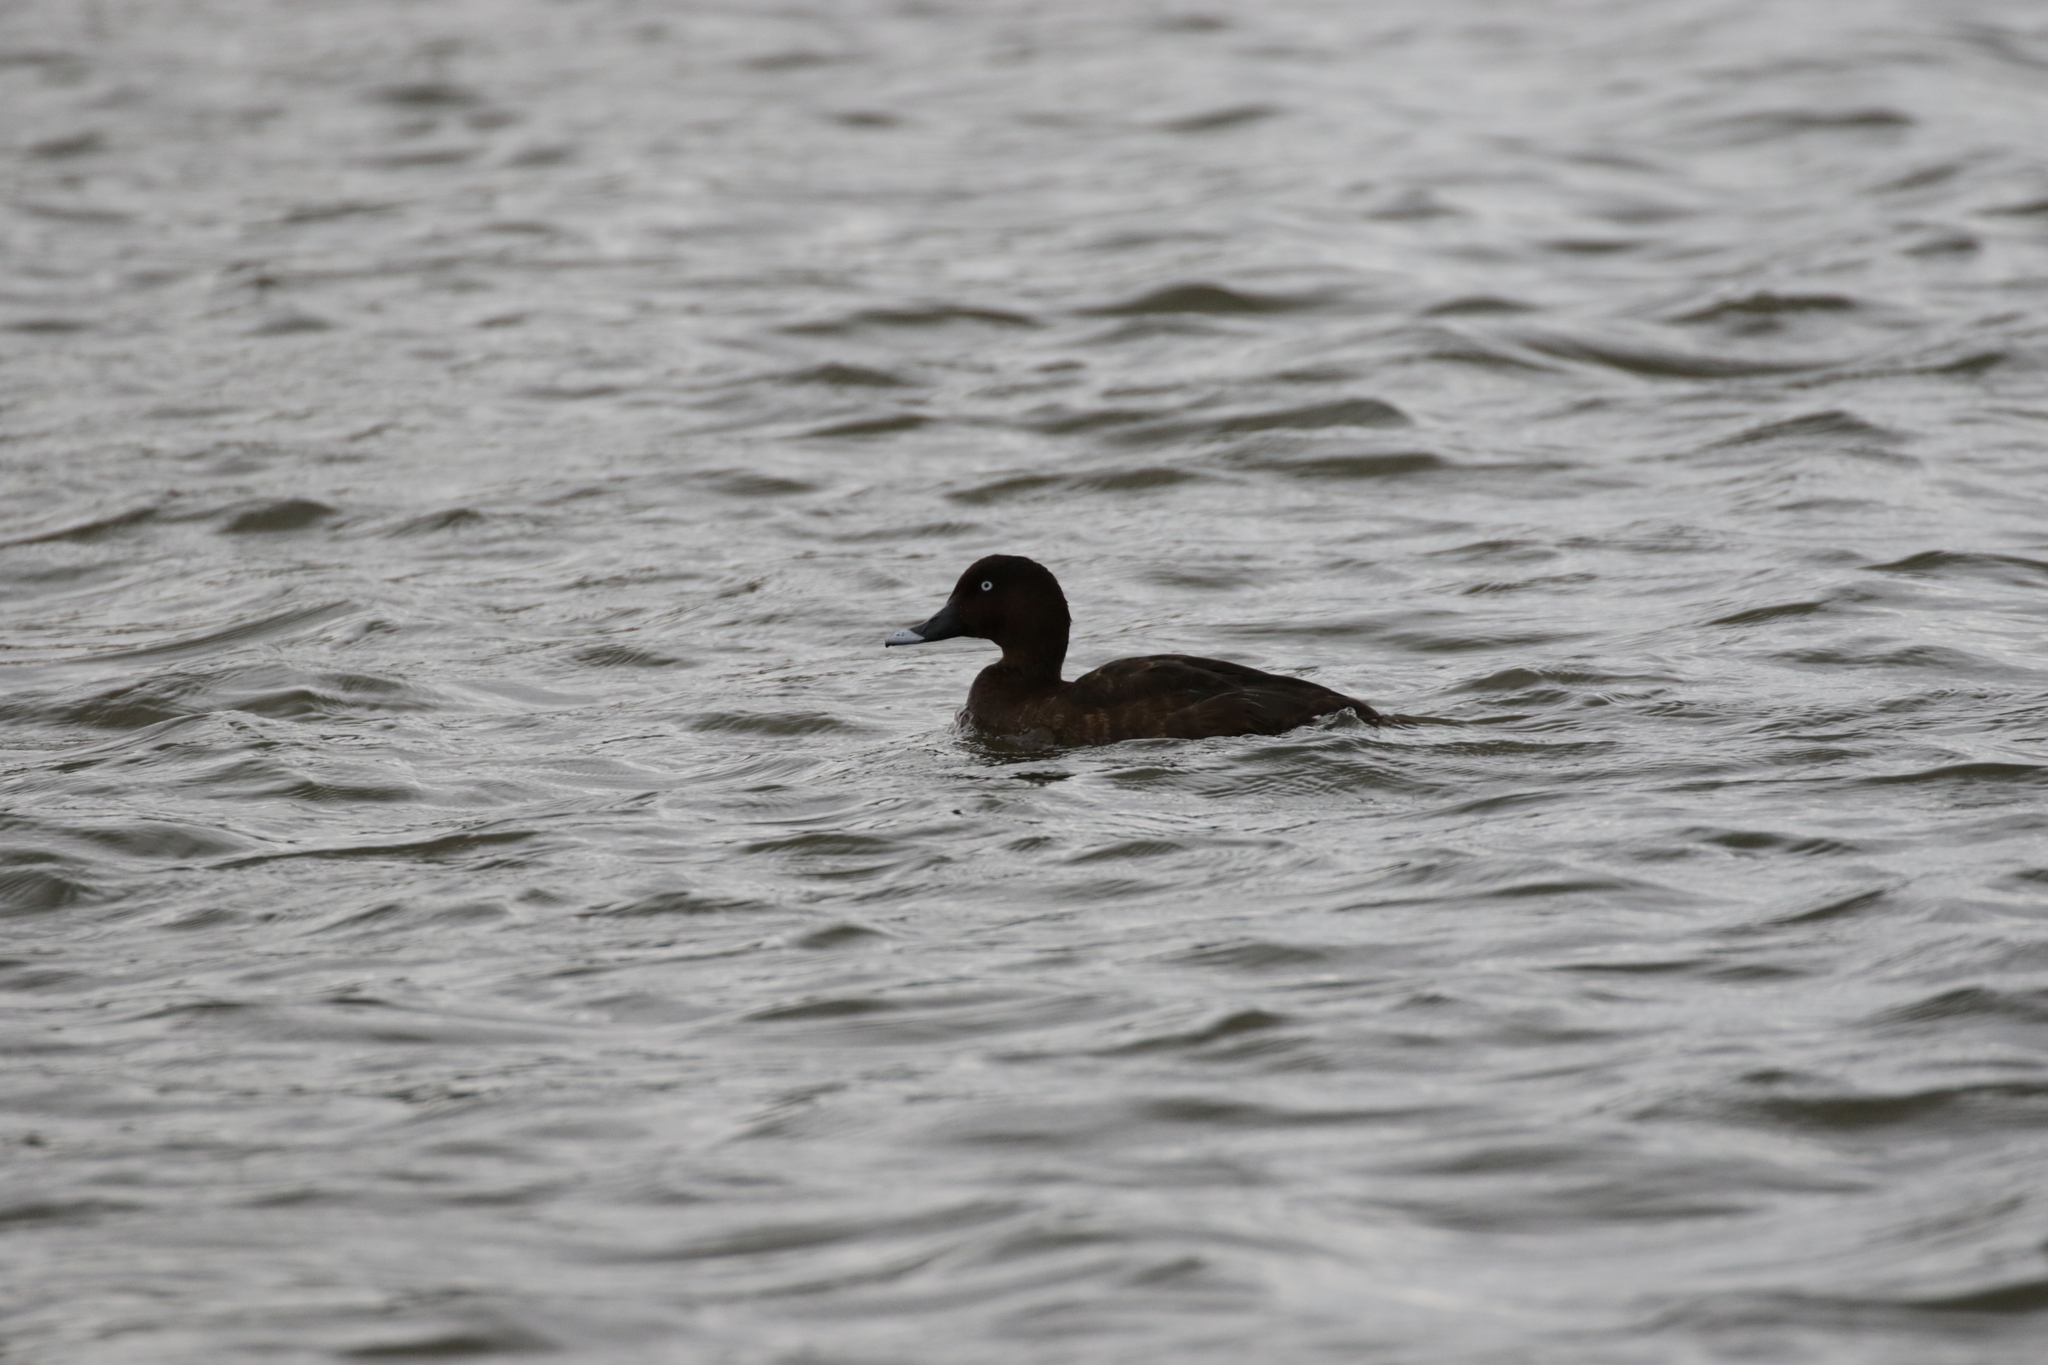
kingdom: Animalia
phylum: Chordata
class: Aves
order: Anseriformes
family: Anatidae
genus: Aythya
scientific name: Aythya australis
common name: Hardhead
